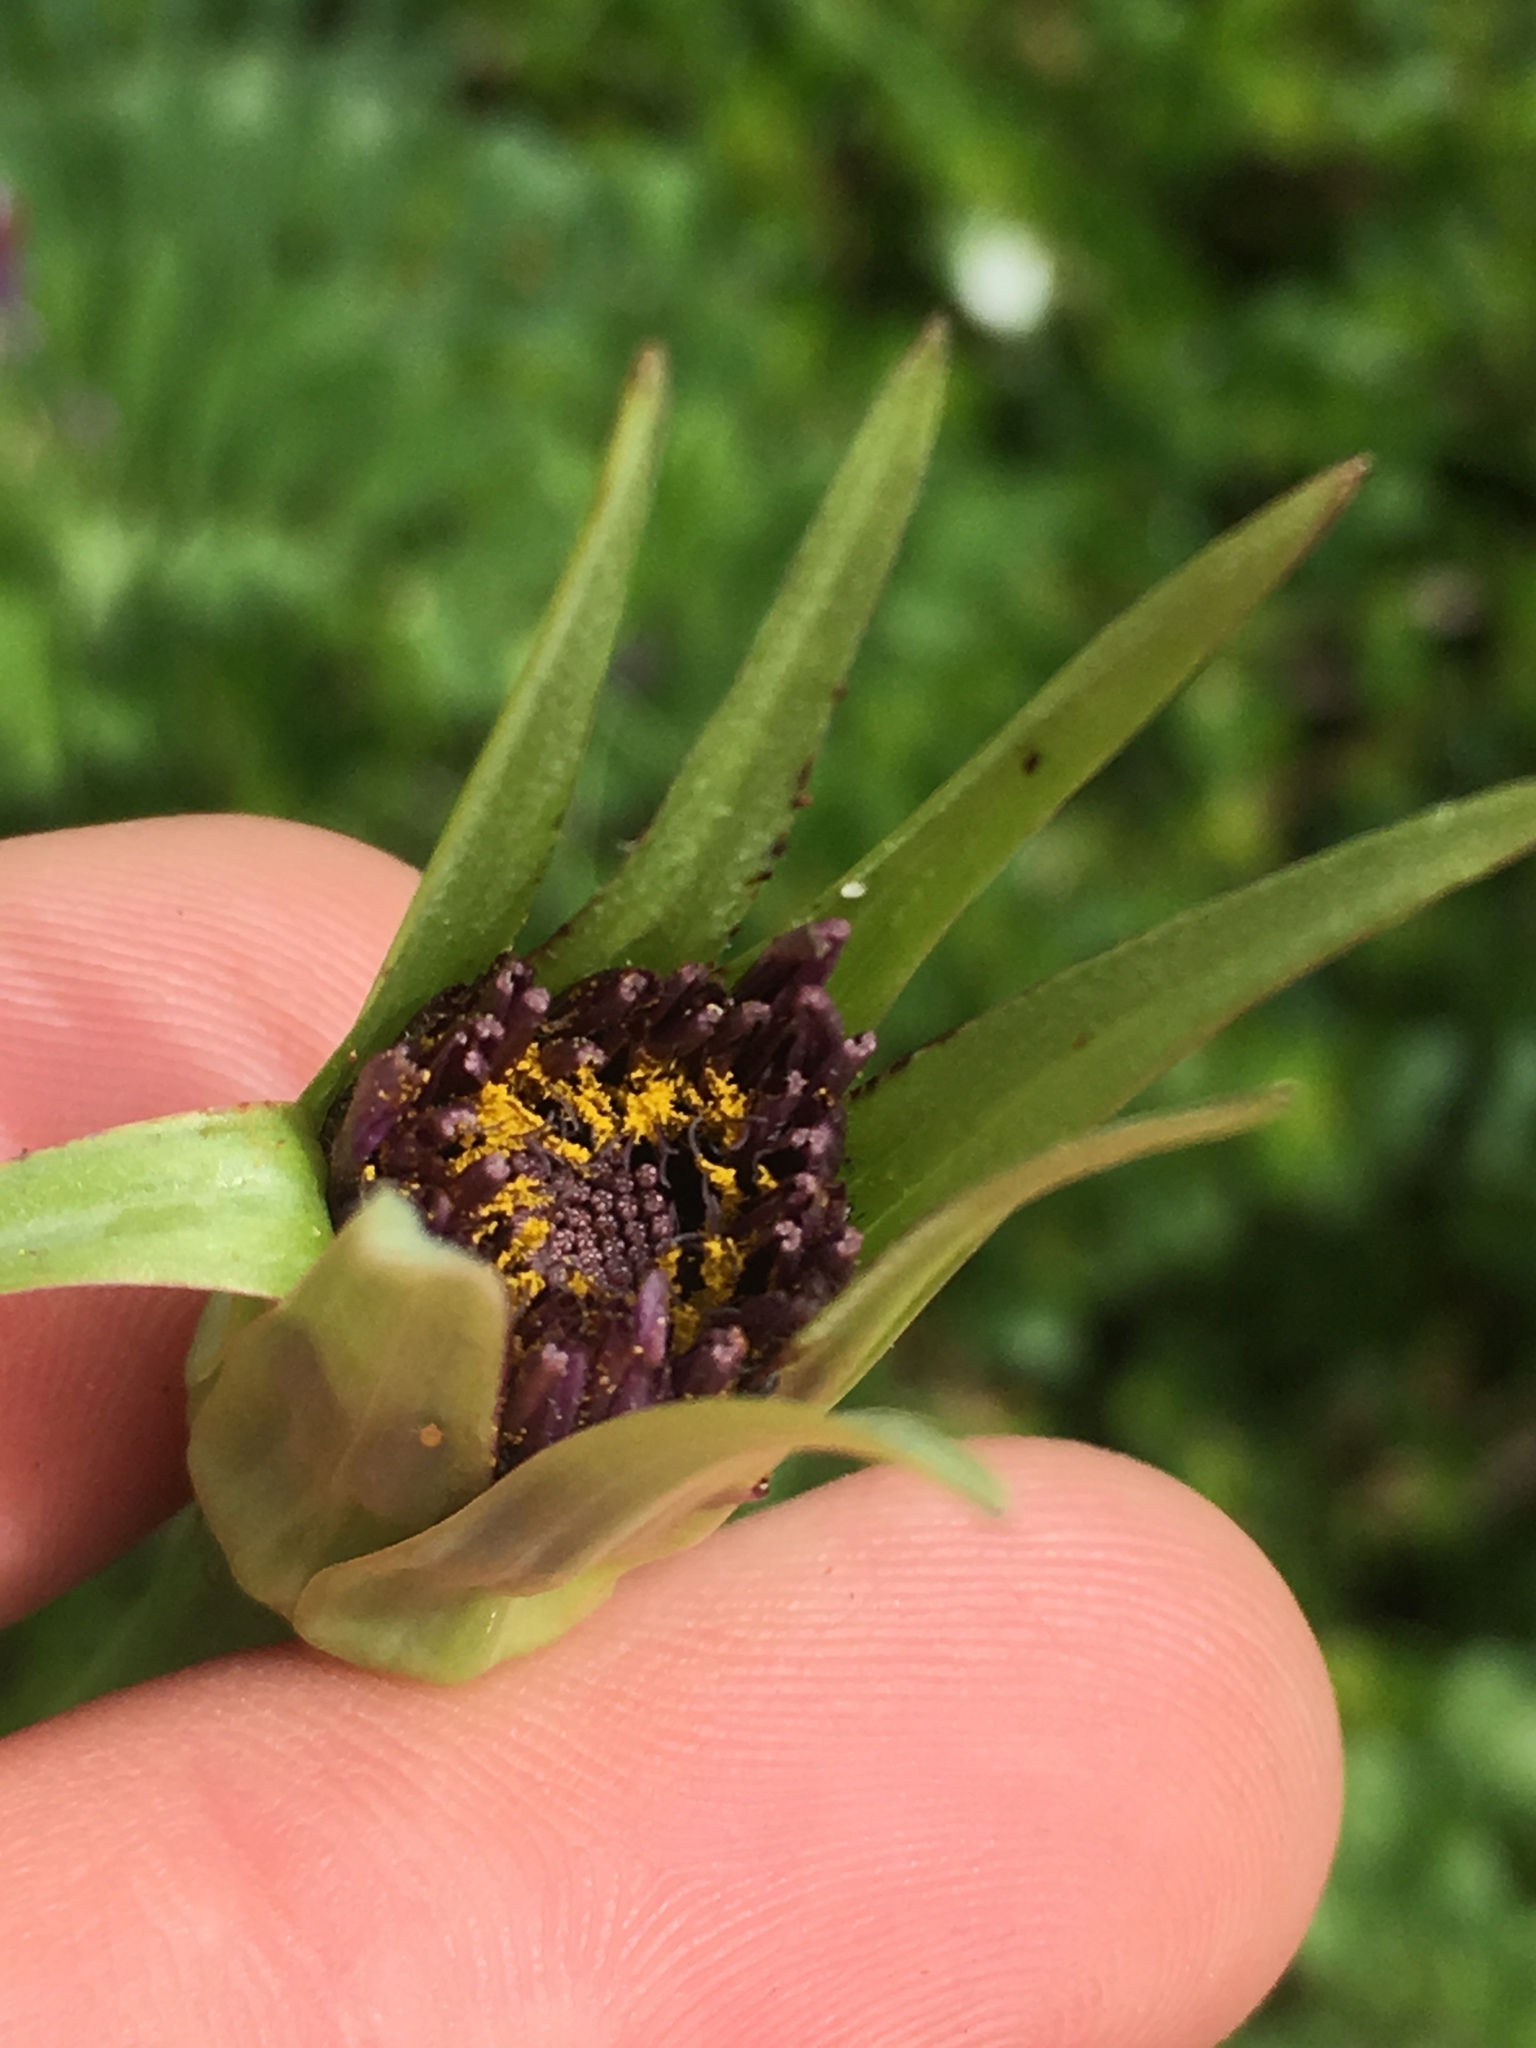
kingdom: Plantae
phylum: Tracheophyta
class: Magnoliopsida
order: Asterales
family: Asteraceae
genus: Tragopogon
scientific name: Tragopogon porrifolius
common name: Salsify
